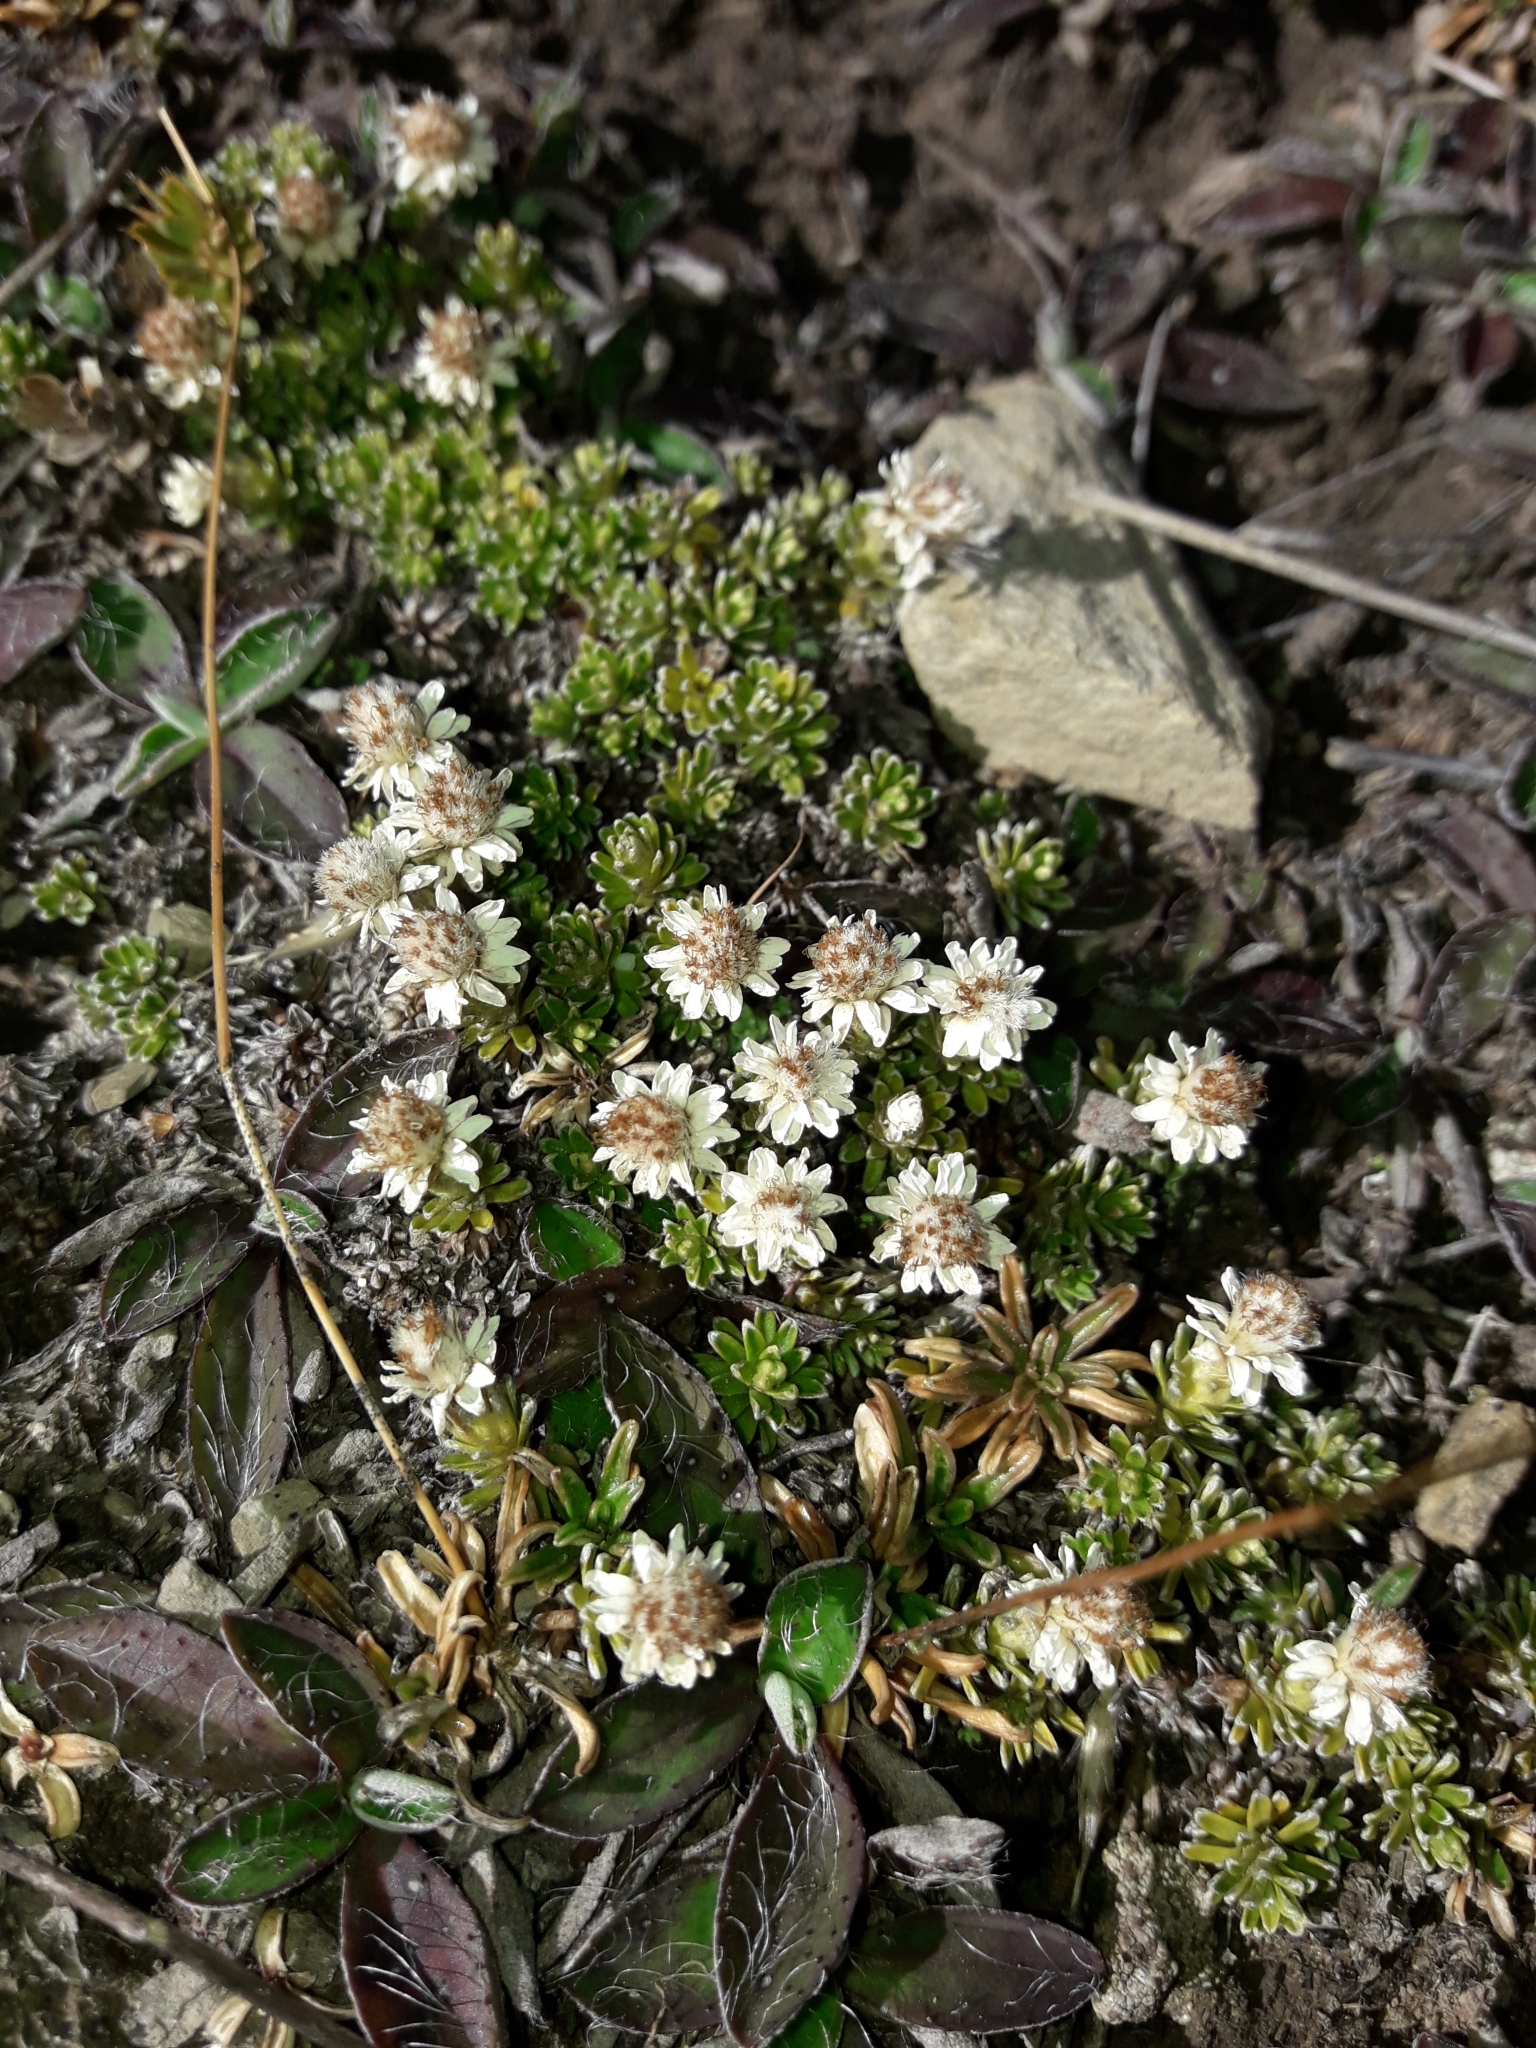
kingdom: Plantae
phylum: Tracheophyta
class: Magnoliopsida
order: Asterales
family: Asteraceae
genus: Raoulia
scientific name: Raoulia subsericea
